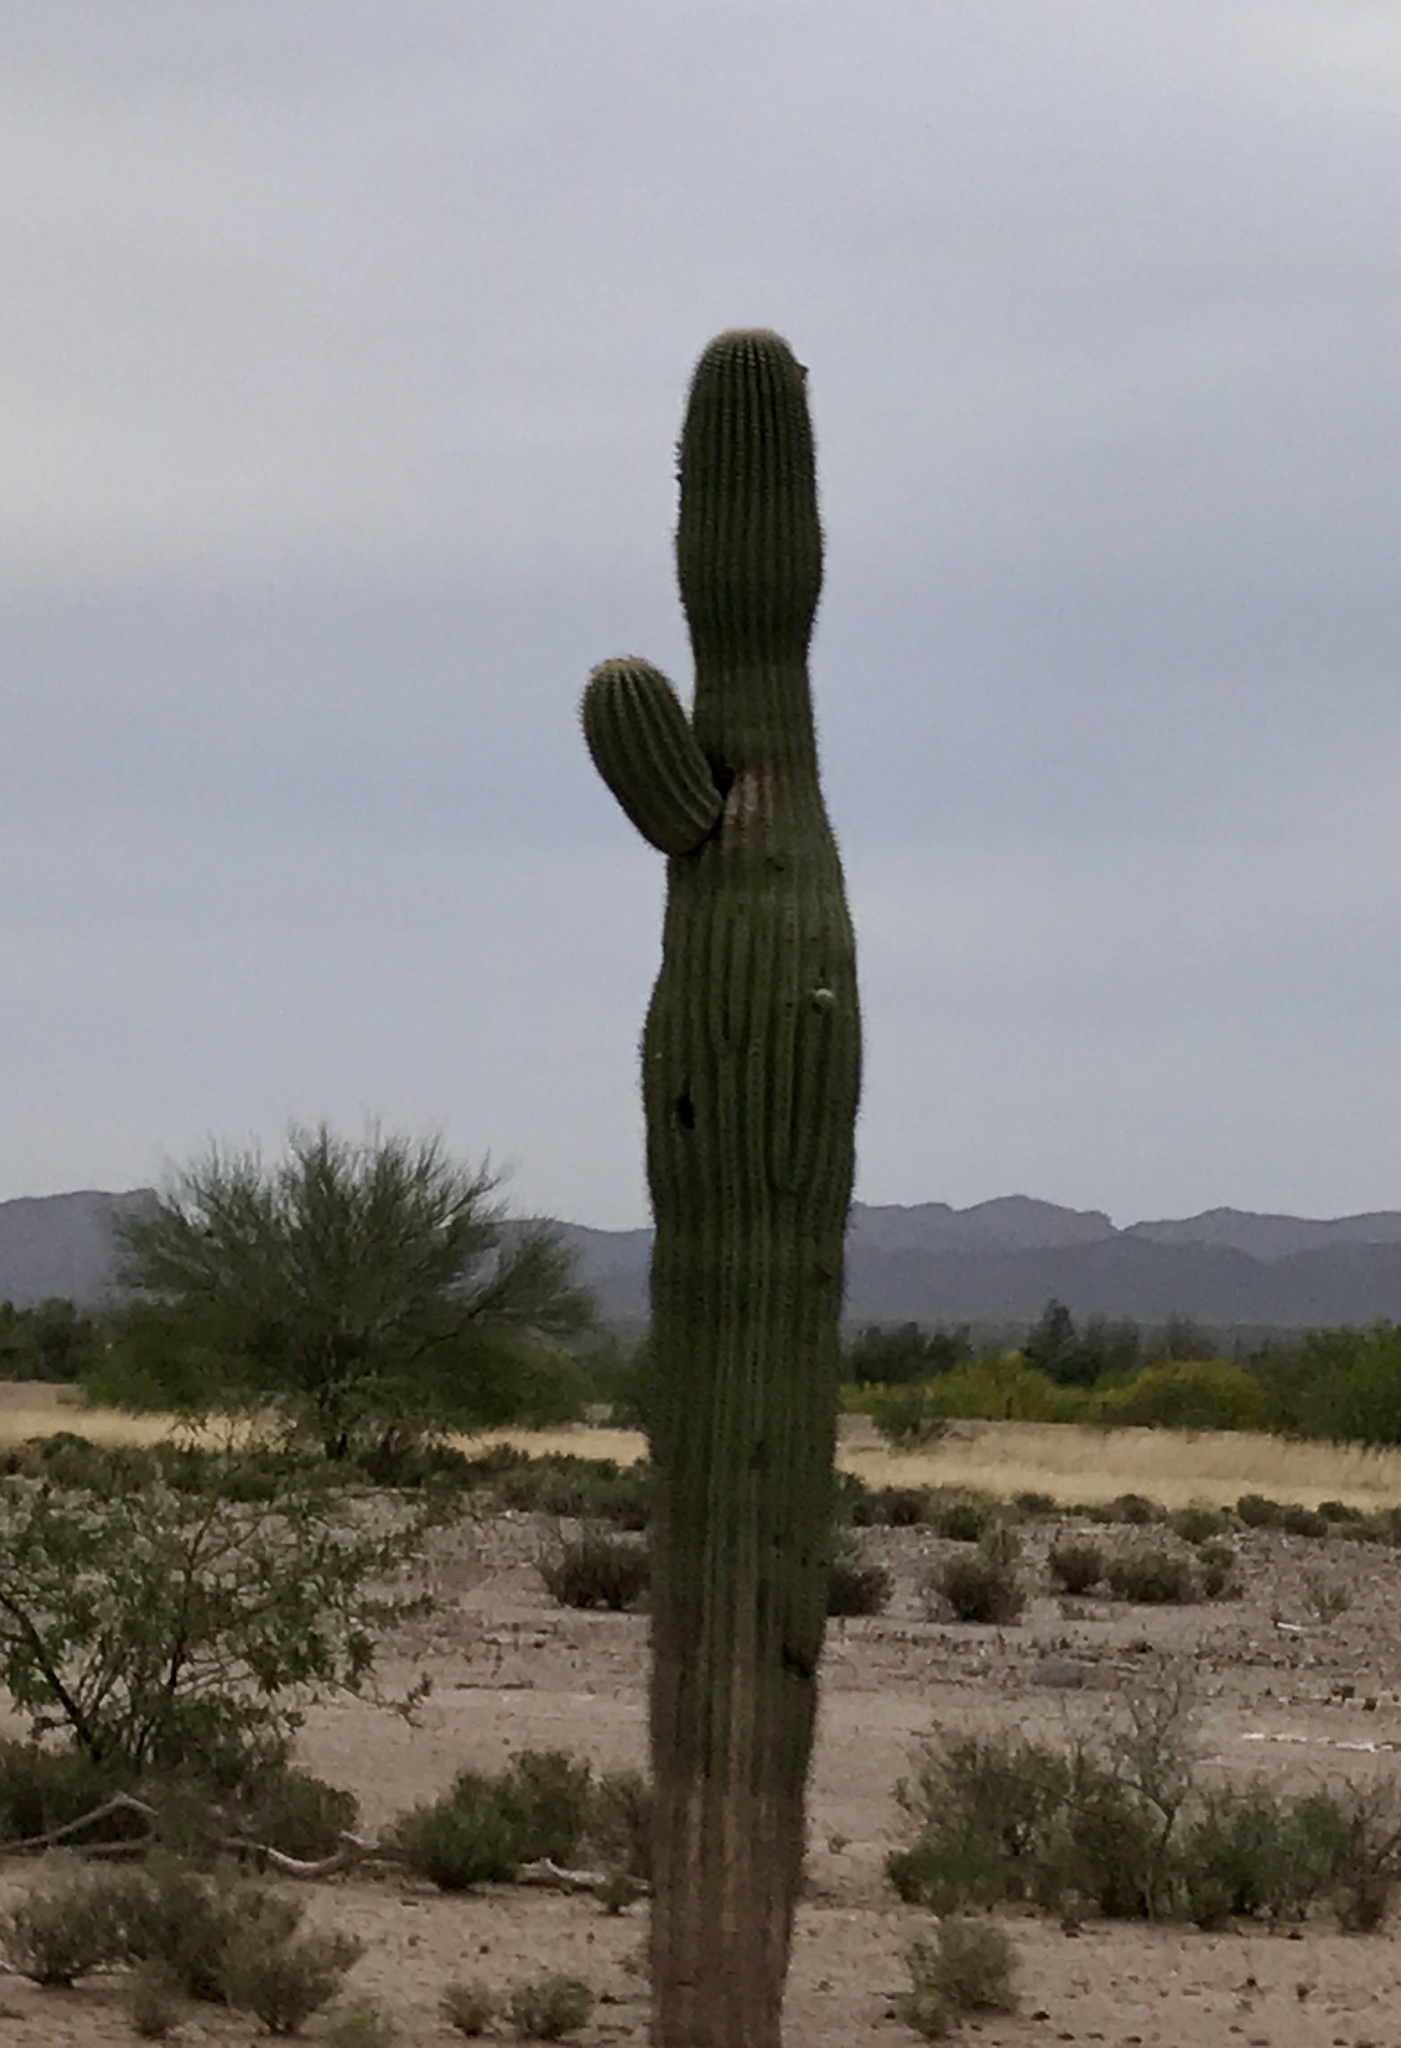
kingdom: Plantae
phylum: Tracheophyta
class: Magnoliopsida
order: Caryophyllales
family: Cactaceae
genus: Carnegiea
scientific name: Carnegiea gigantea
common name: Saguaro
